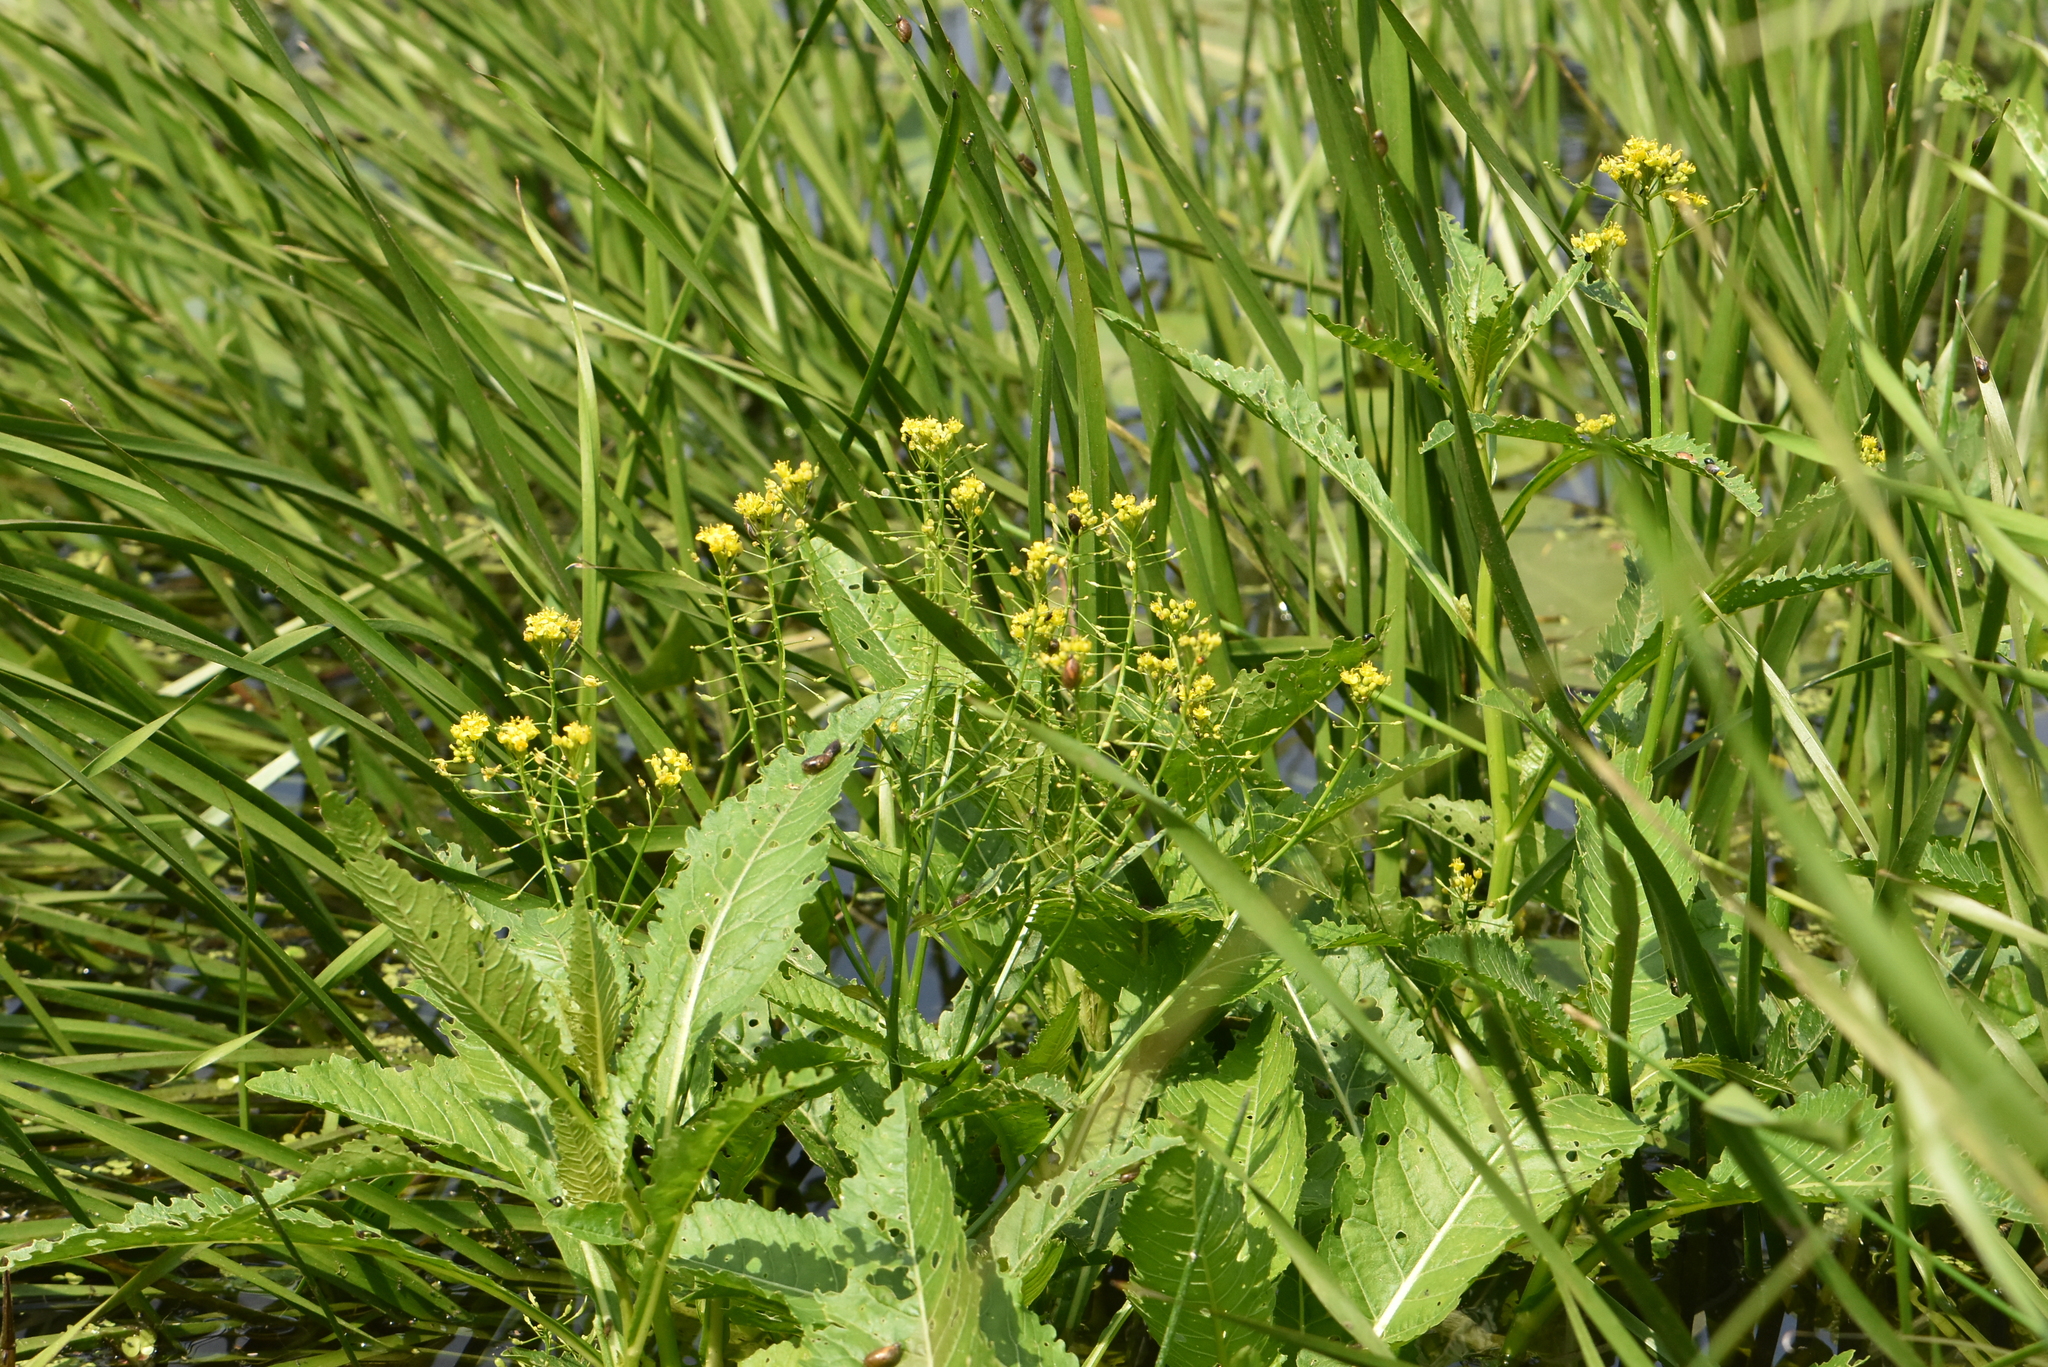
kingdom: Plantae
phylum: Tracheophyta
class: Magnoliopsida
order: Brassicales
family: Brassicaceae
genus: Rorippa
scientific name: Rorippa amphibia
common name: Great yellow-cress
